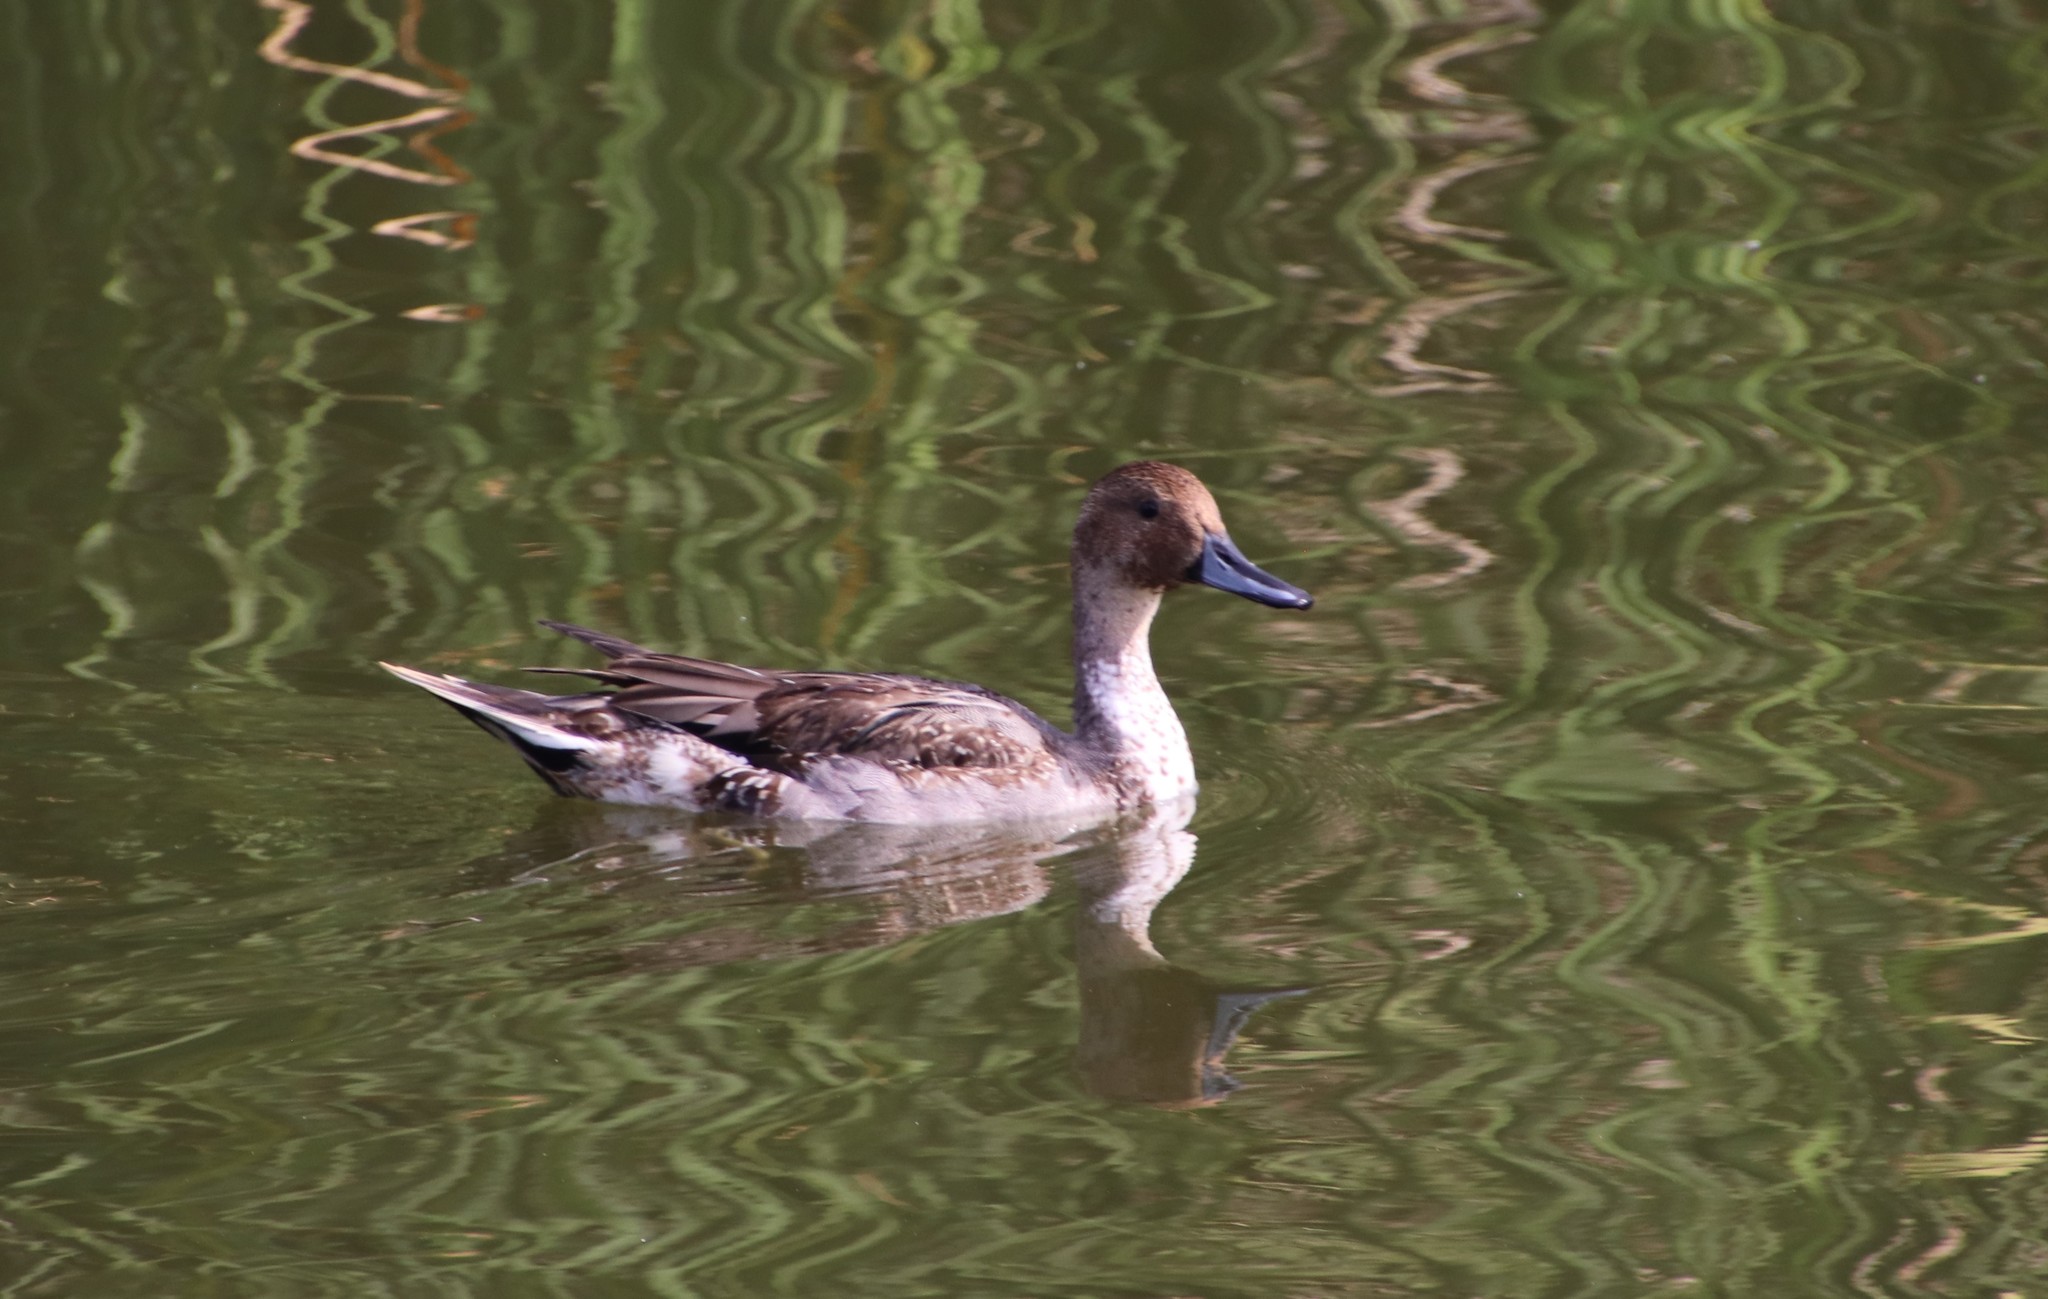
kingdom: Animalia
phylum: Chordata
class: Aves
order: Anseriformes
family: Anatidae
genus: Anas
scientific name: Anas acuta
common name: Northern pintail
